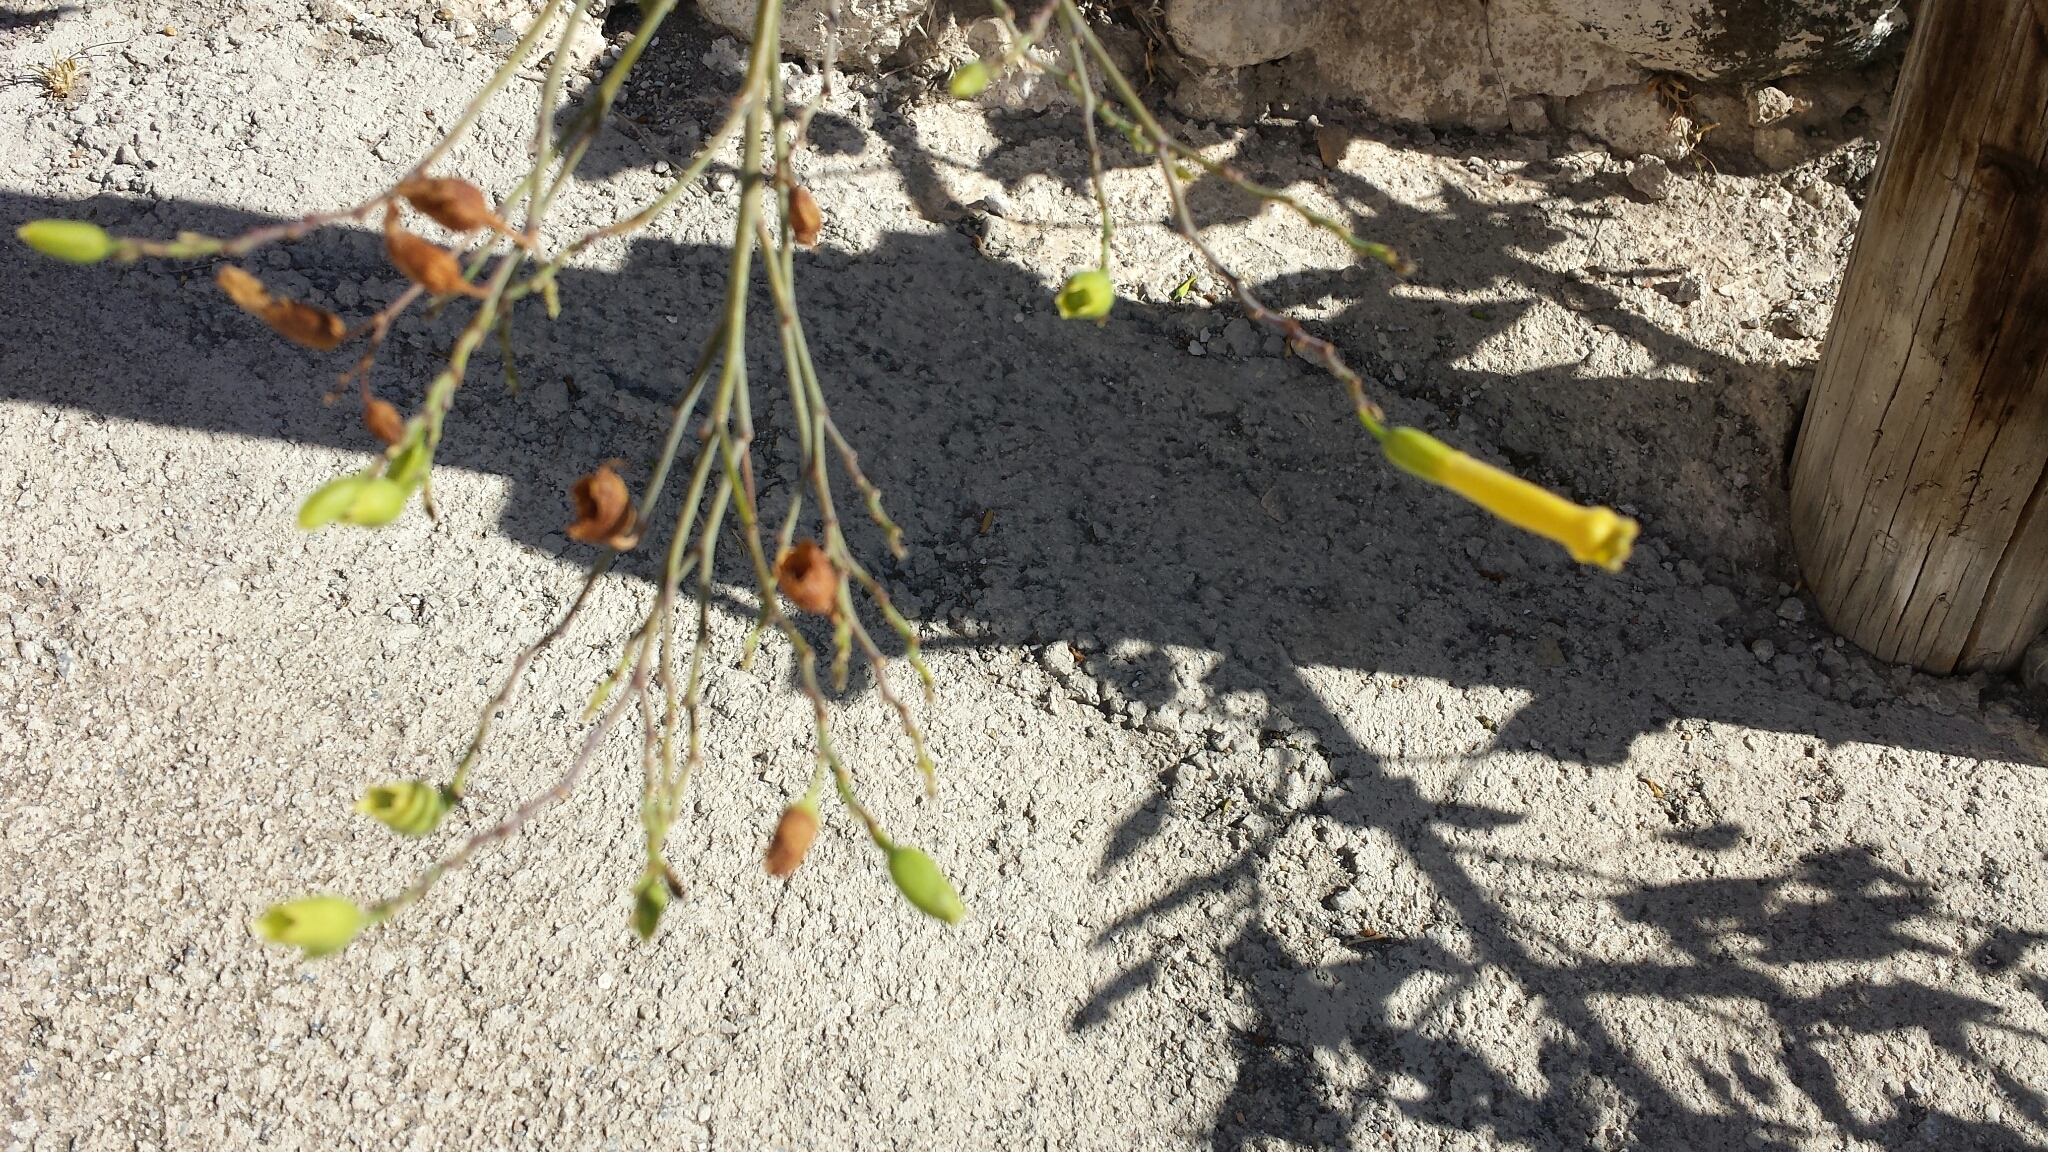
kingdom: Plantae
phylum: Tracheophyta
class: Magnoliopsida
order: Solanales
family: Solanaceae
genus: Nicotiana
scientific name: Nicotiana glauca
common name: Tree tobacco
